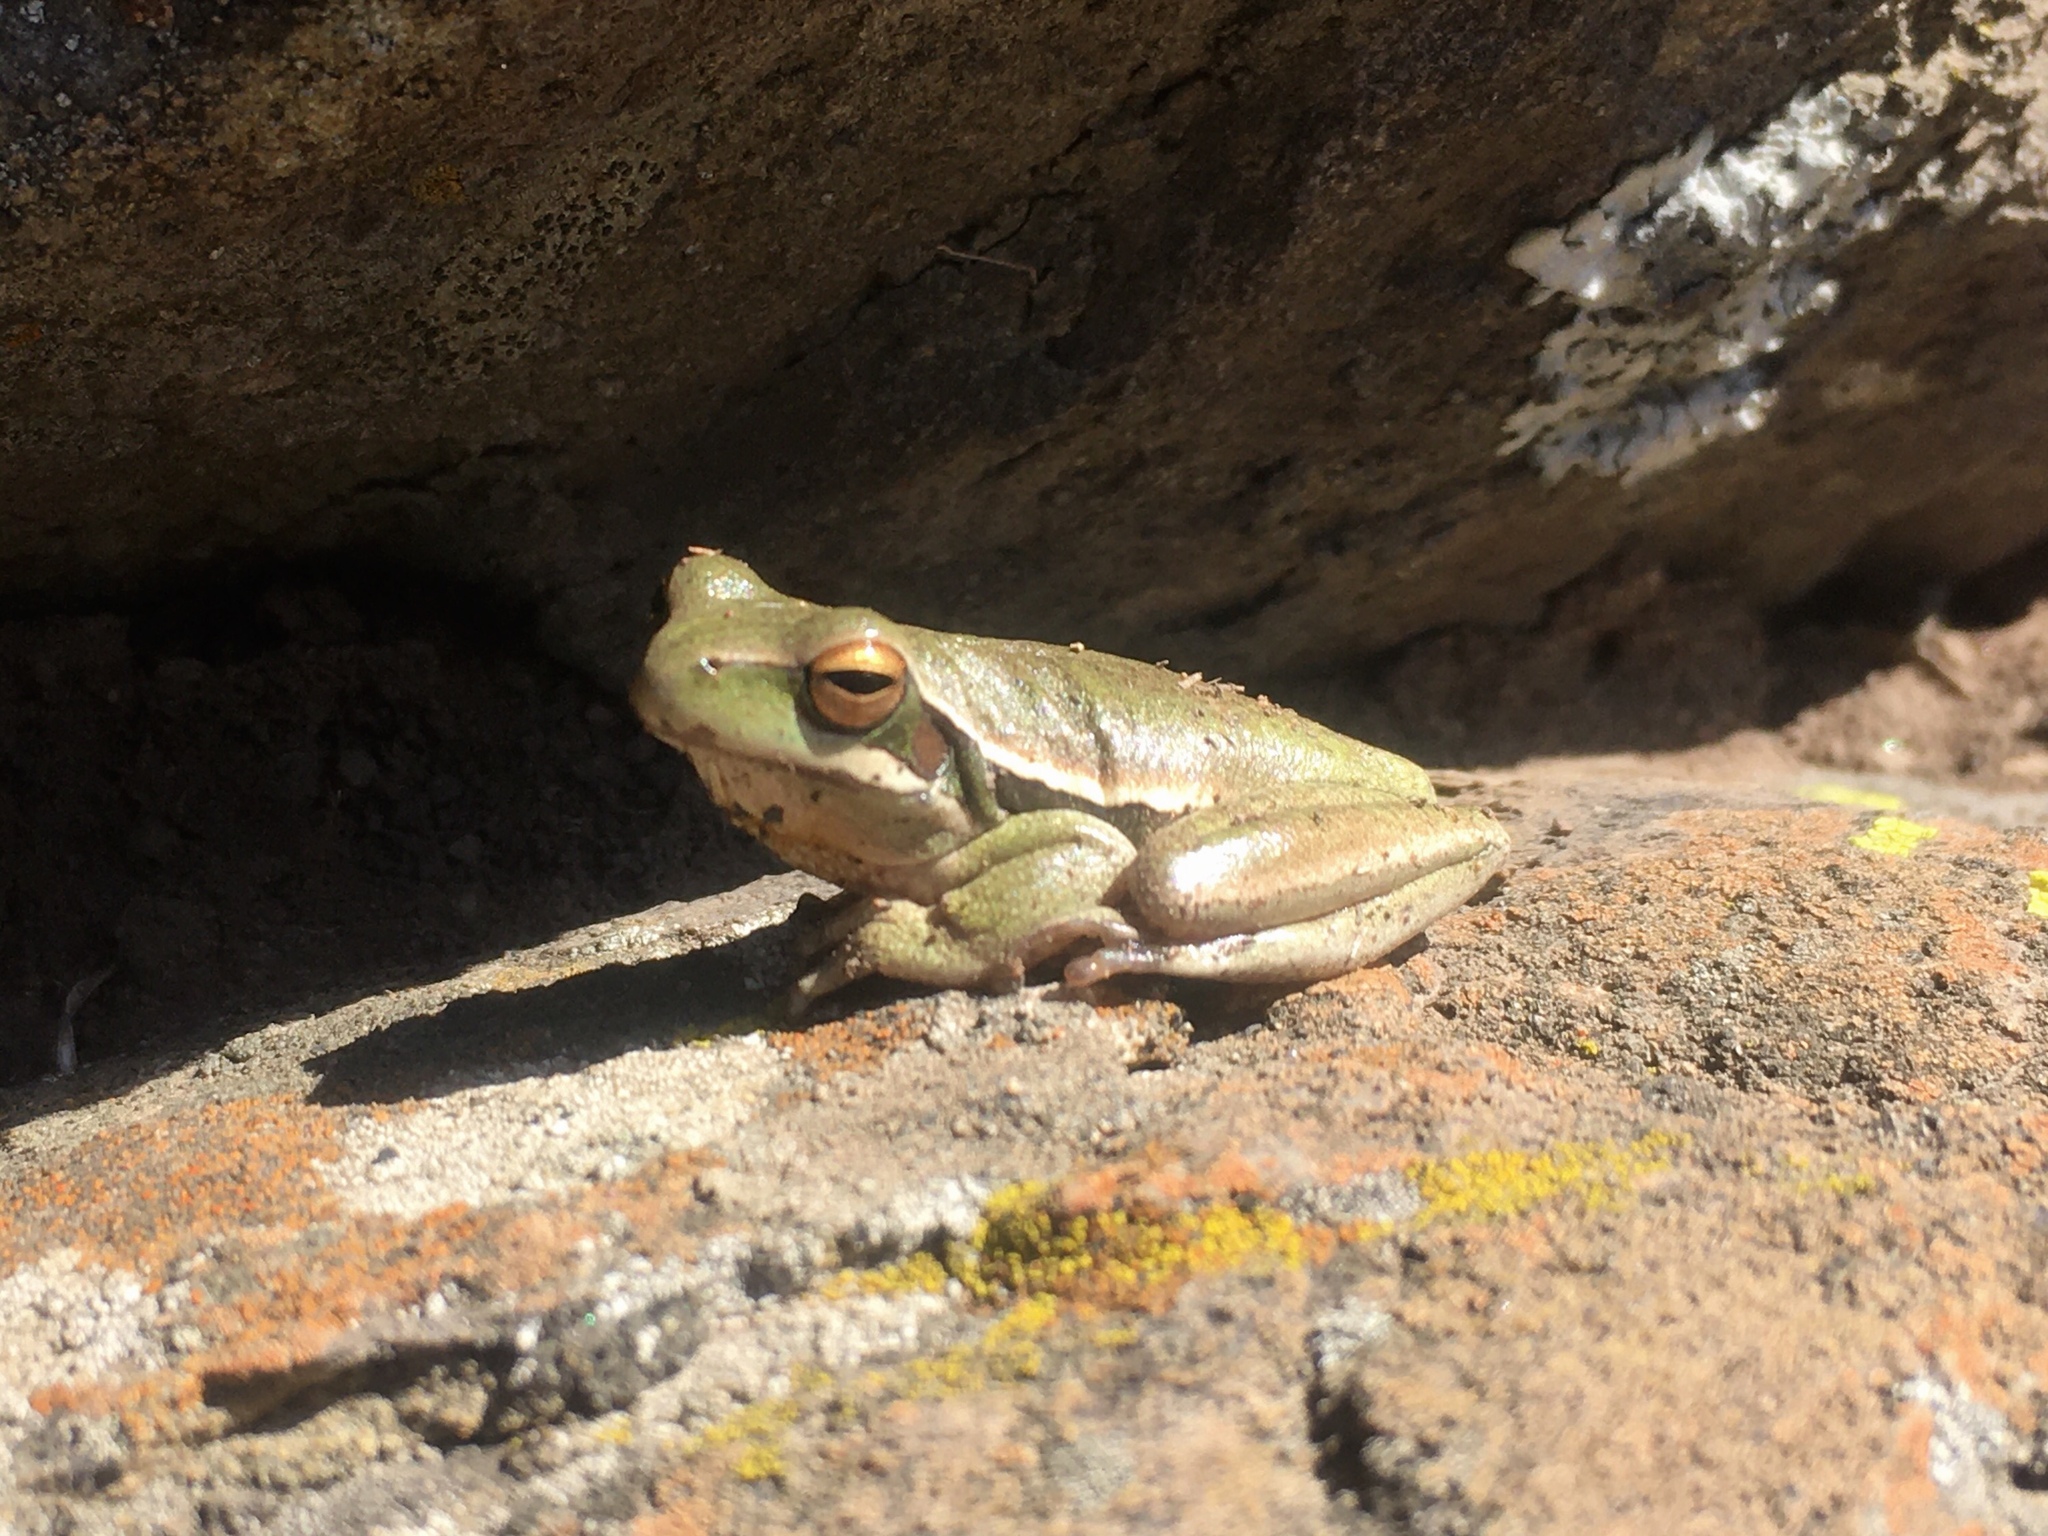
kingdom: Animalia
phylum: Chordata
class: Amphibia
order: Anura
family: Hylidae
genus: Boana
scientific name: Boana pulchella
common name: Montevideo treefrog
